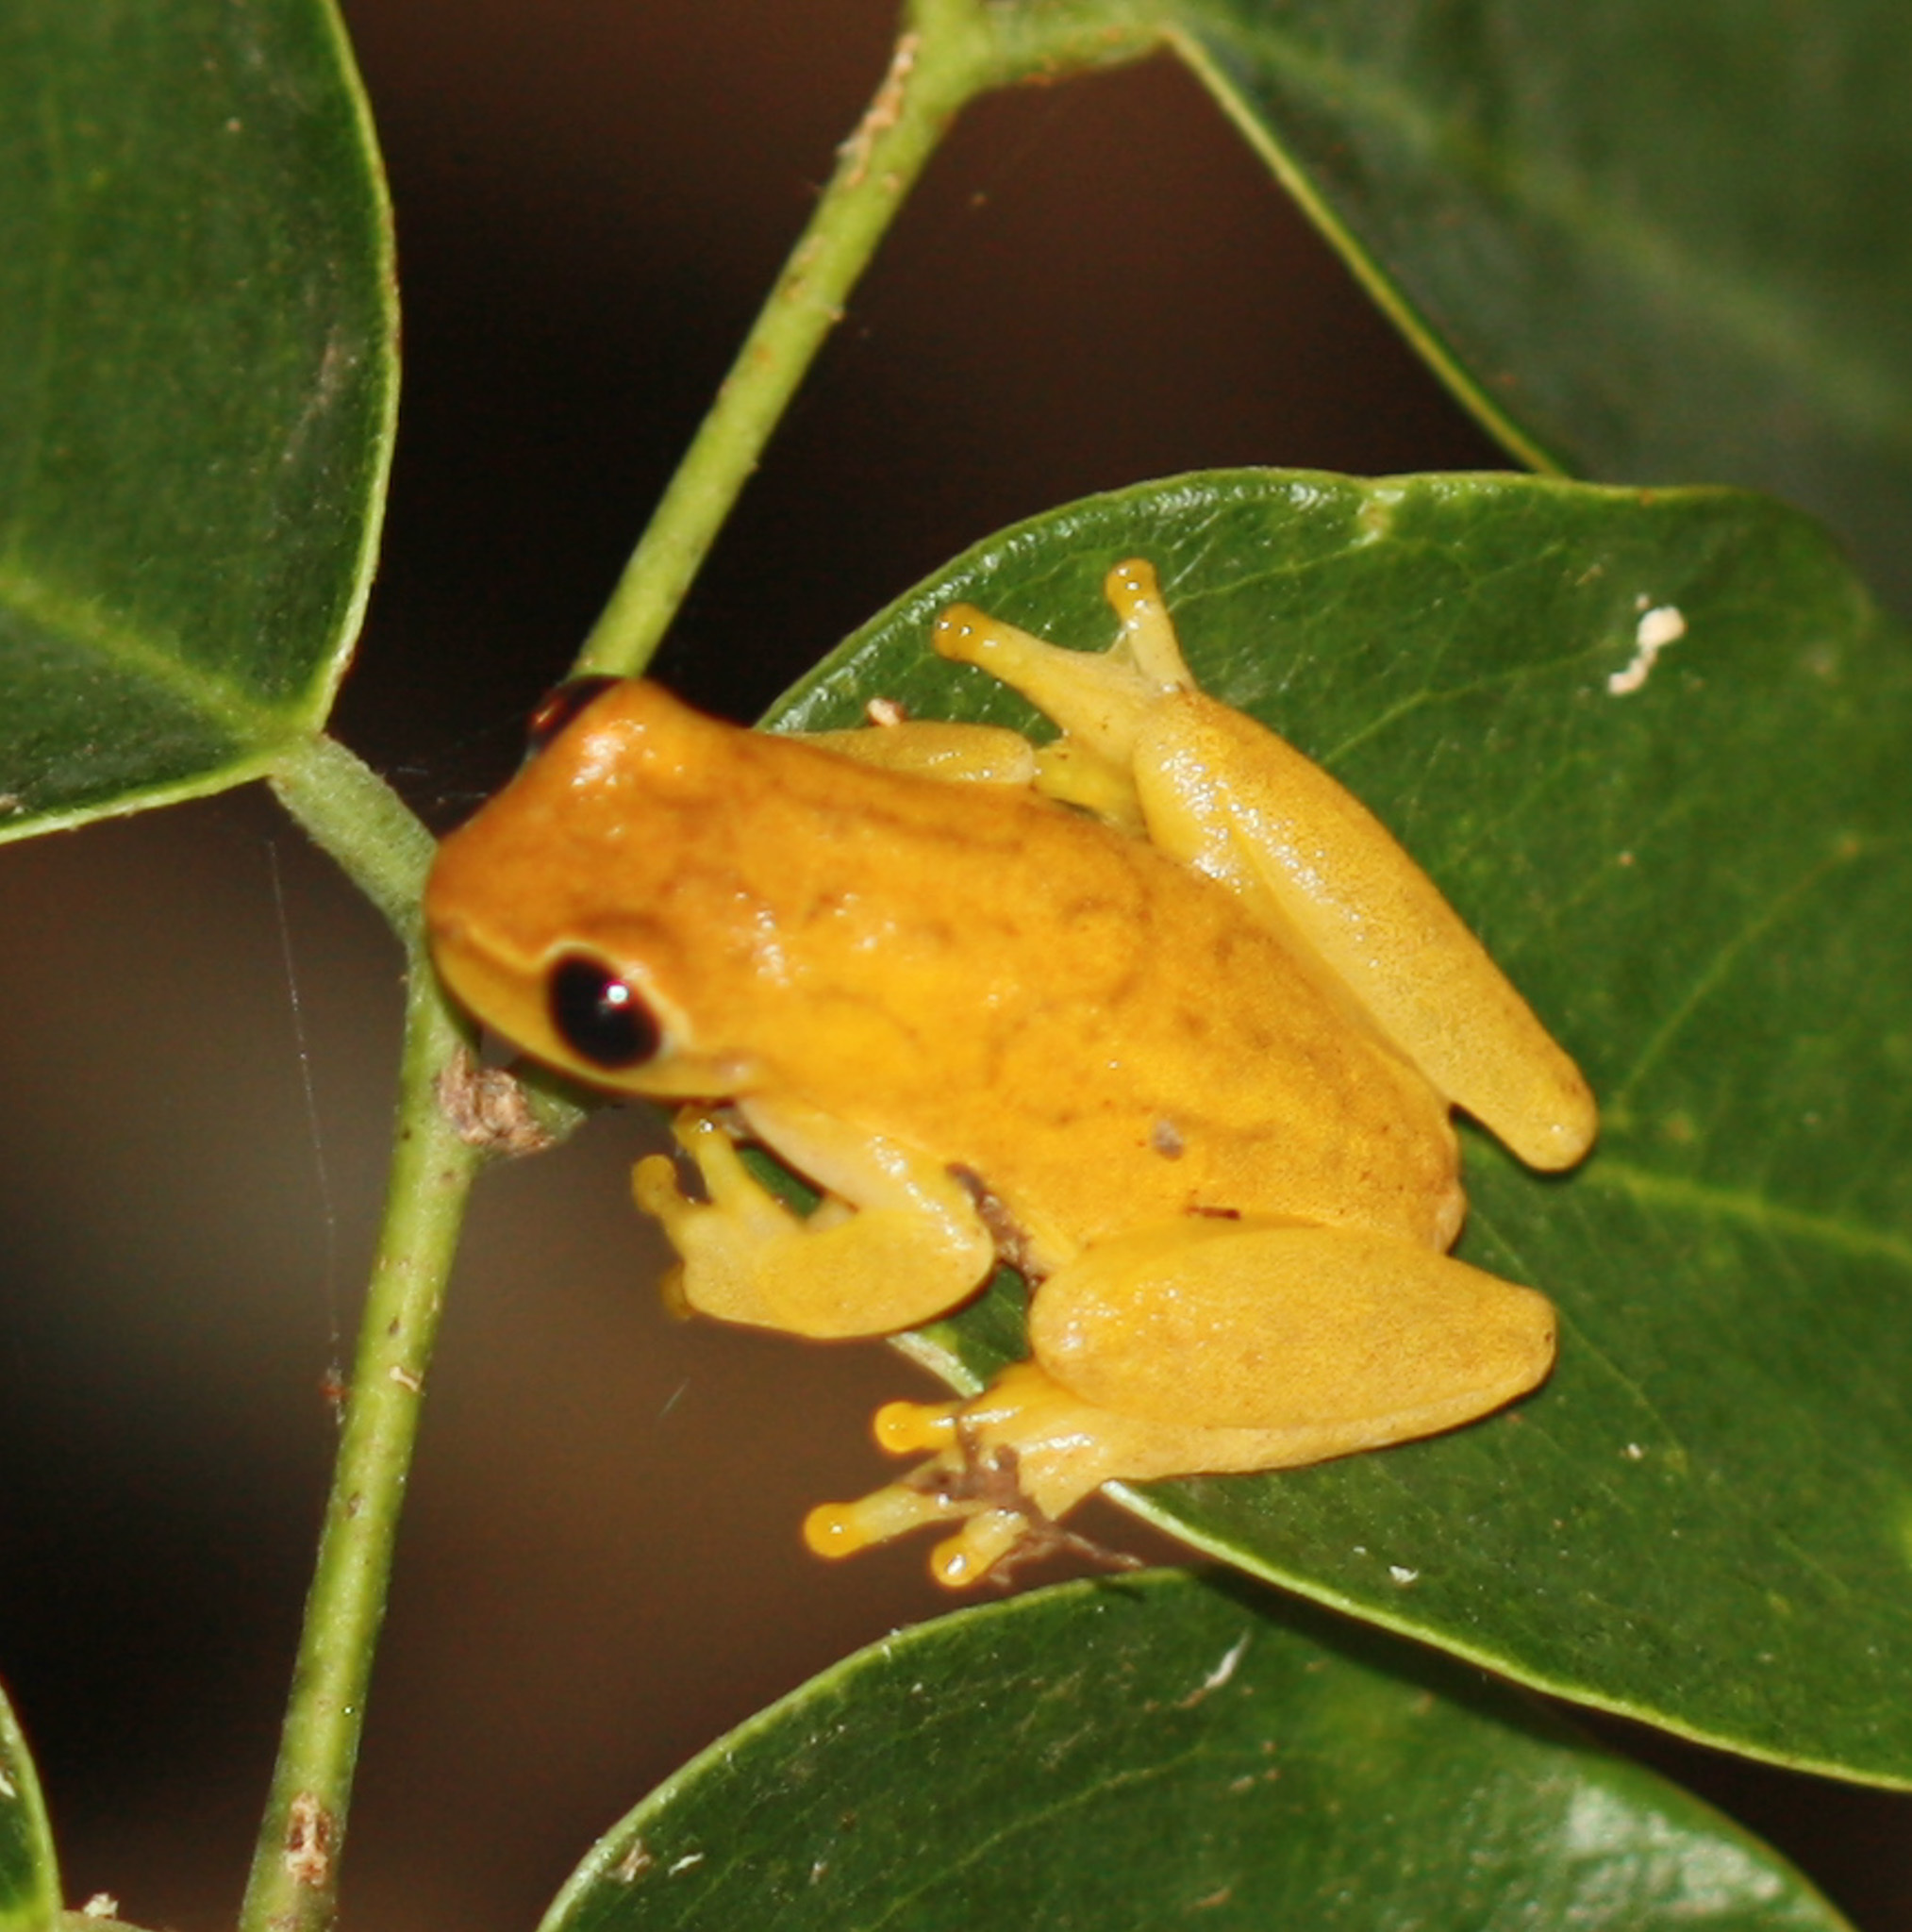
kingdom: Animalia
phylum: Chordata
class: Amphibia
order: Anura
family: Hylidae
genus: Dendropsophus
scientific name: Dendropsophus microcephalus
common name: Small-headed treefrog
